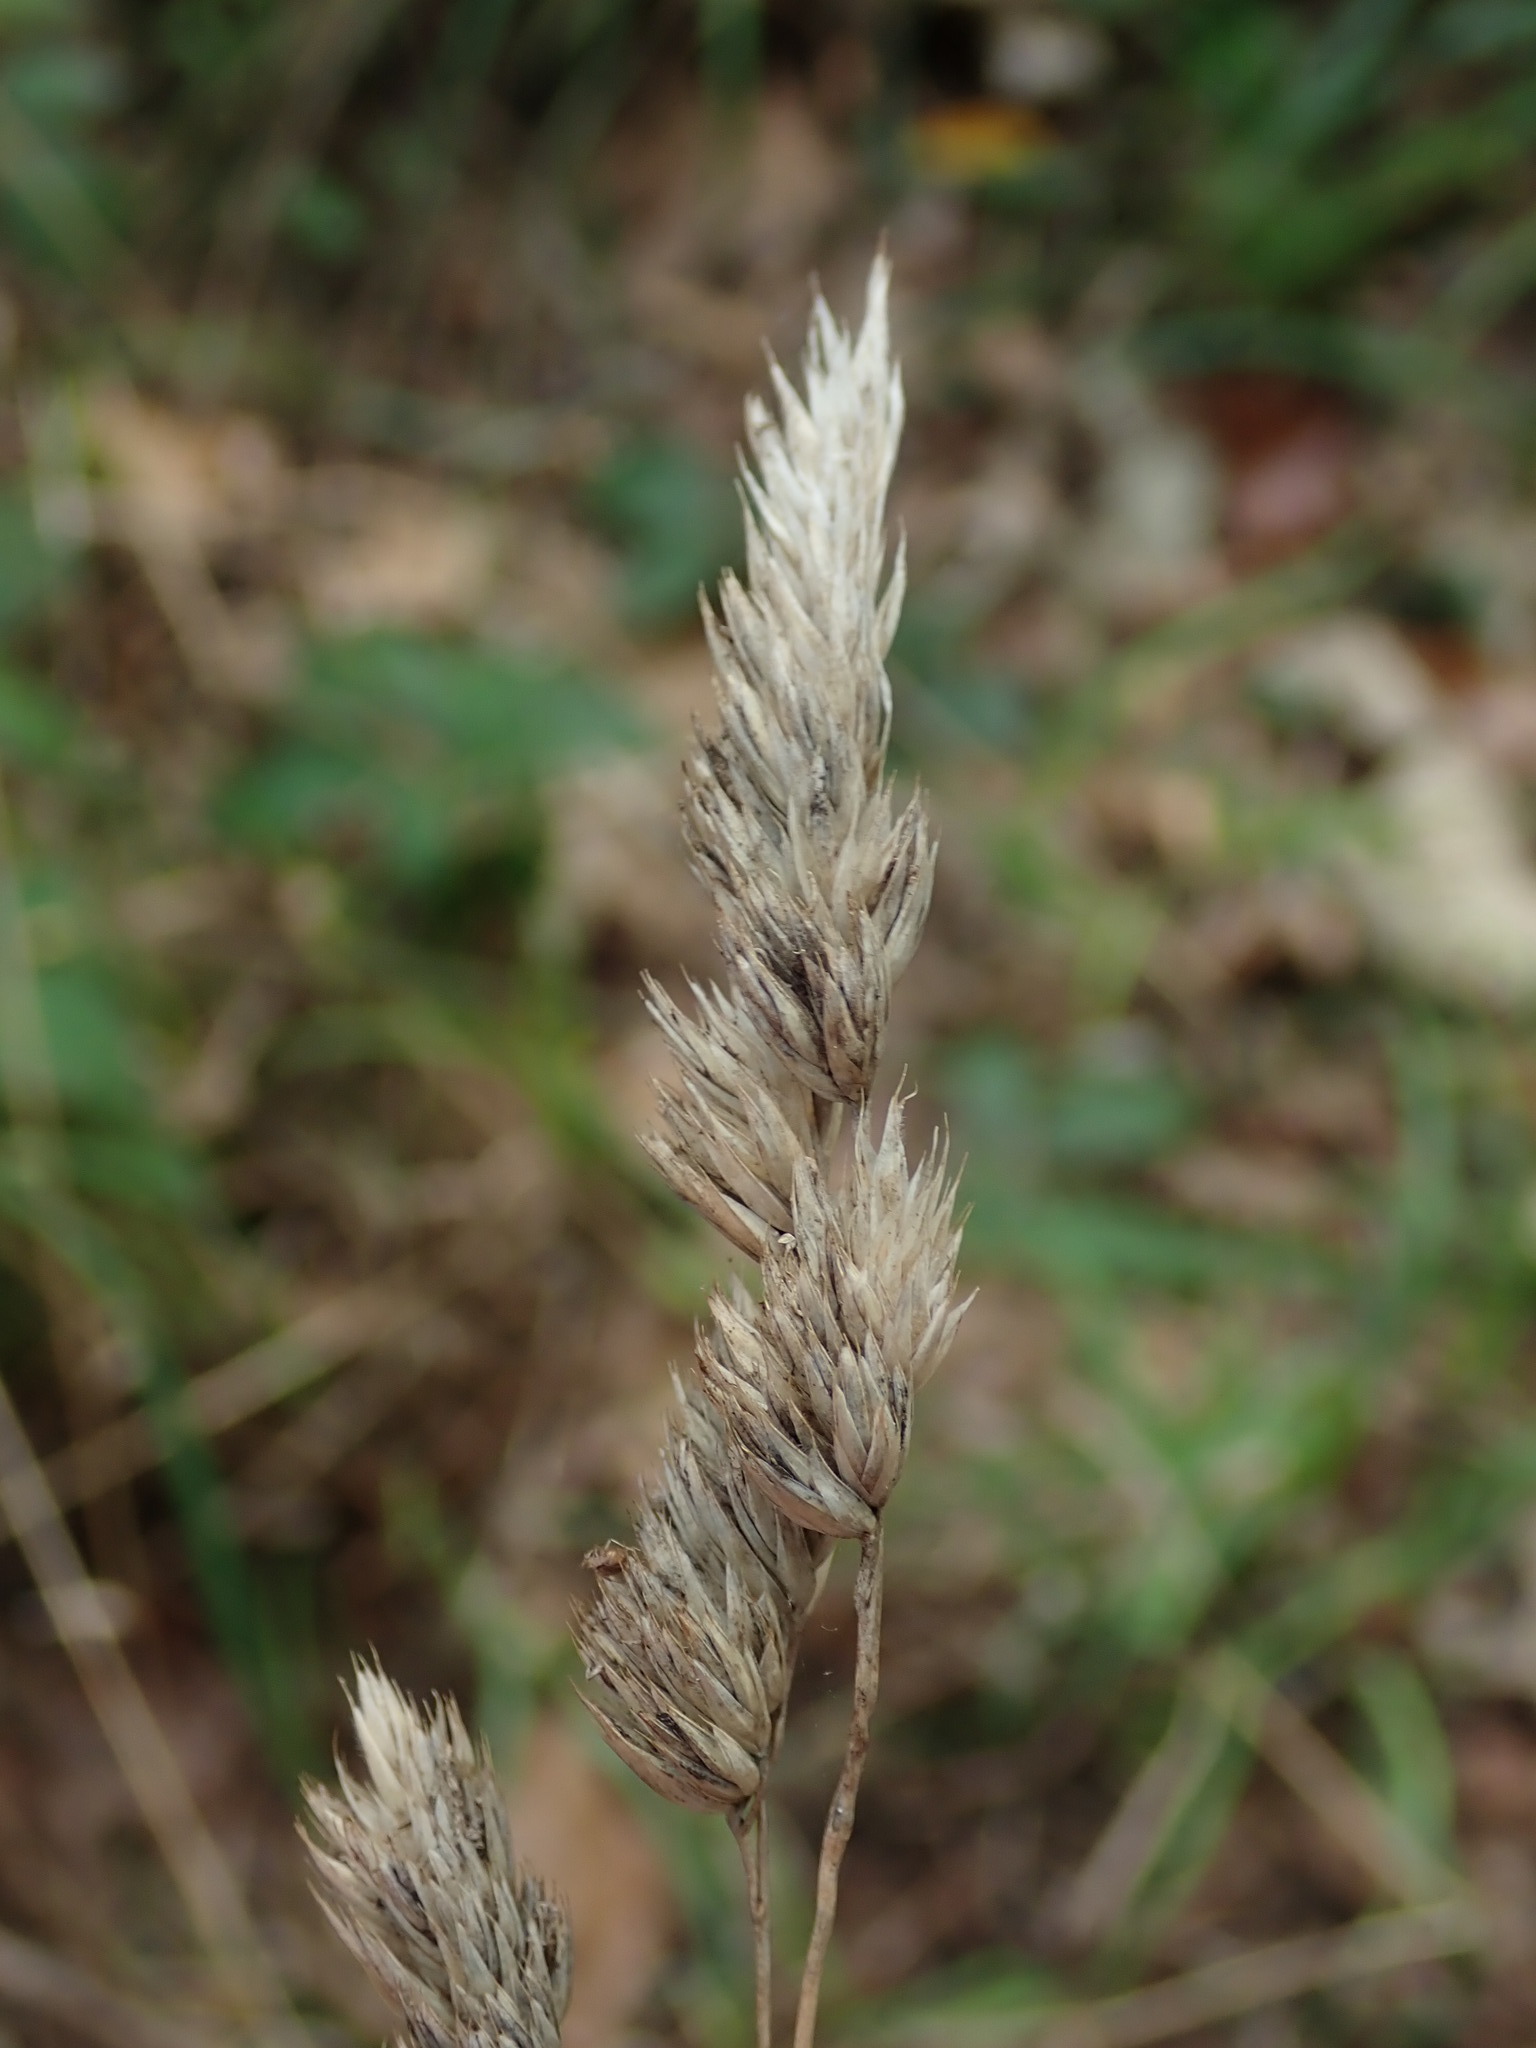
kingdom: Plantae
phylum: Tracheophyta
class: Liliopsida
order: Poales
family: Poaceae
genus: Dactylis
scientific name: Dactylis glomerata
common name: Orchardgrass
